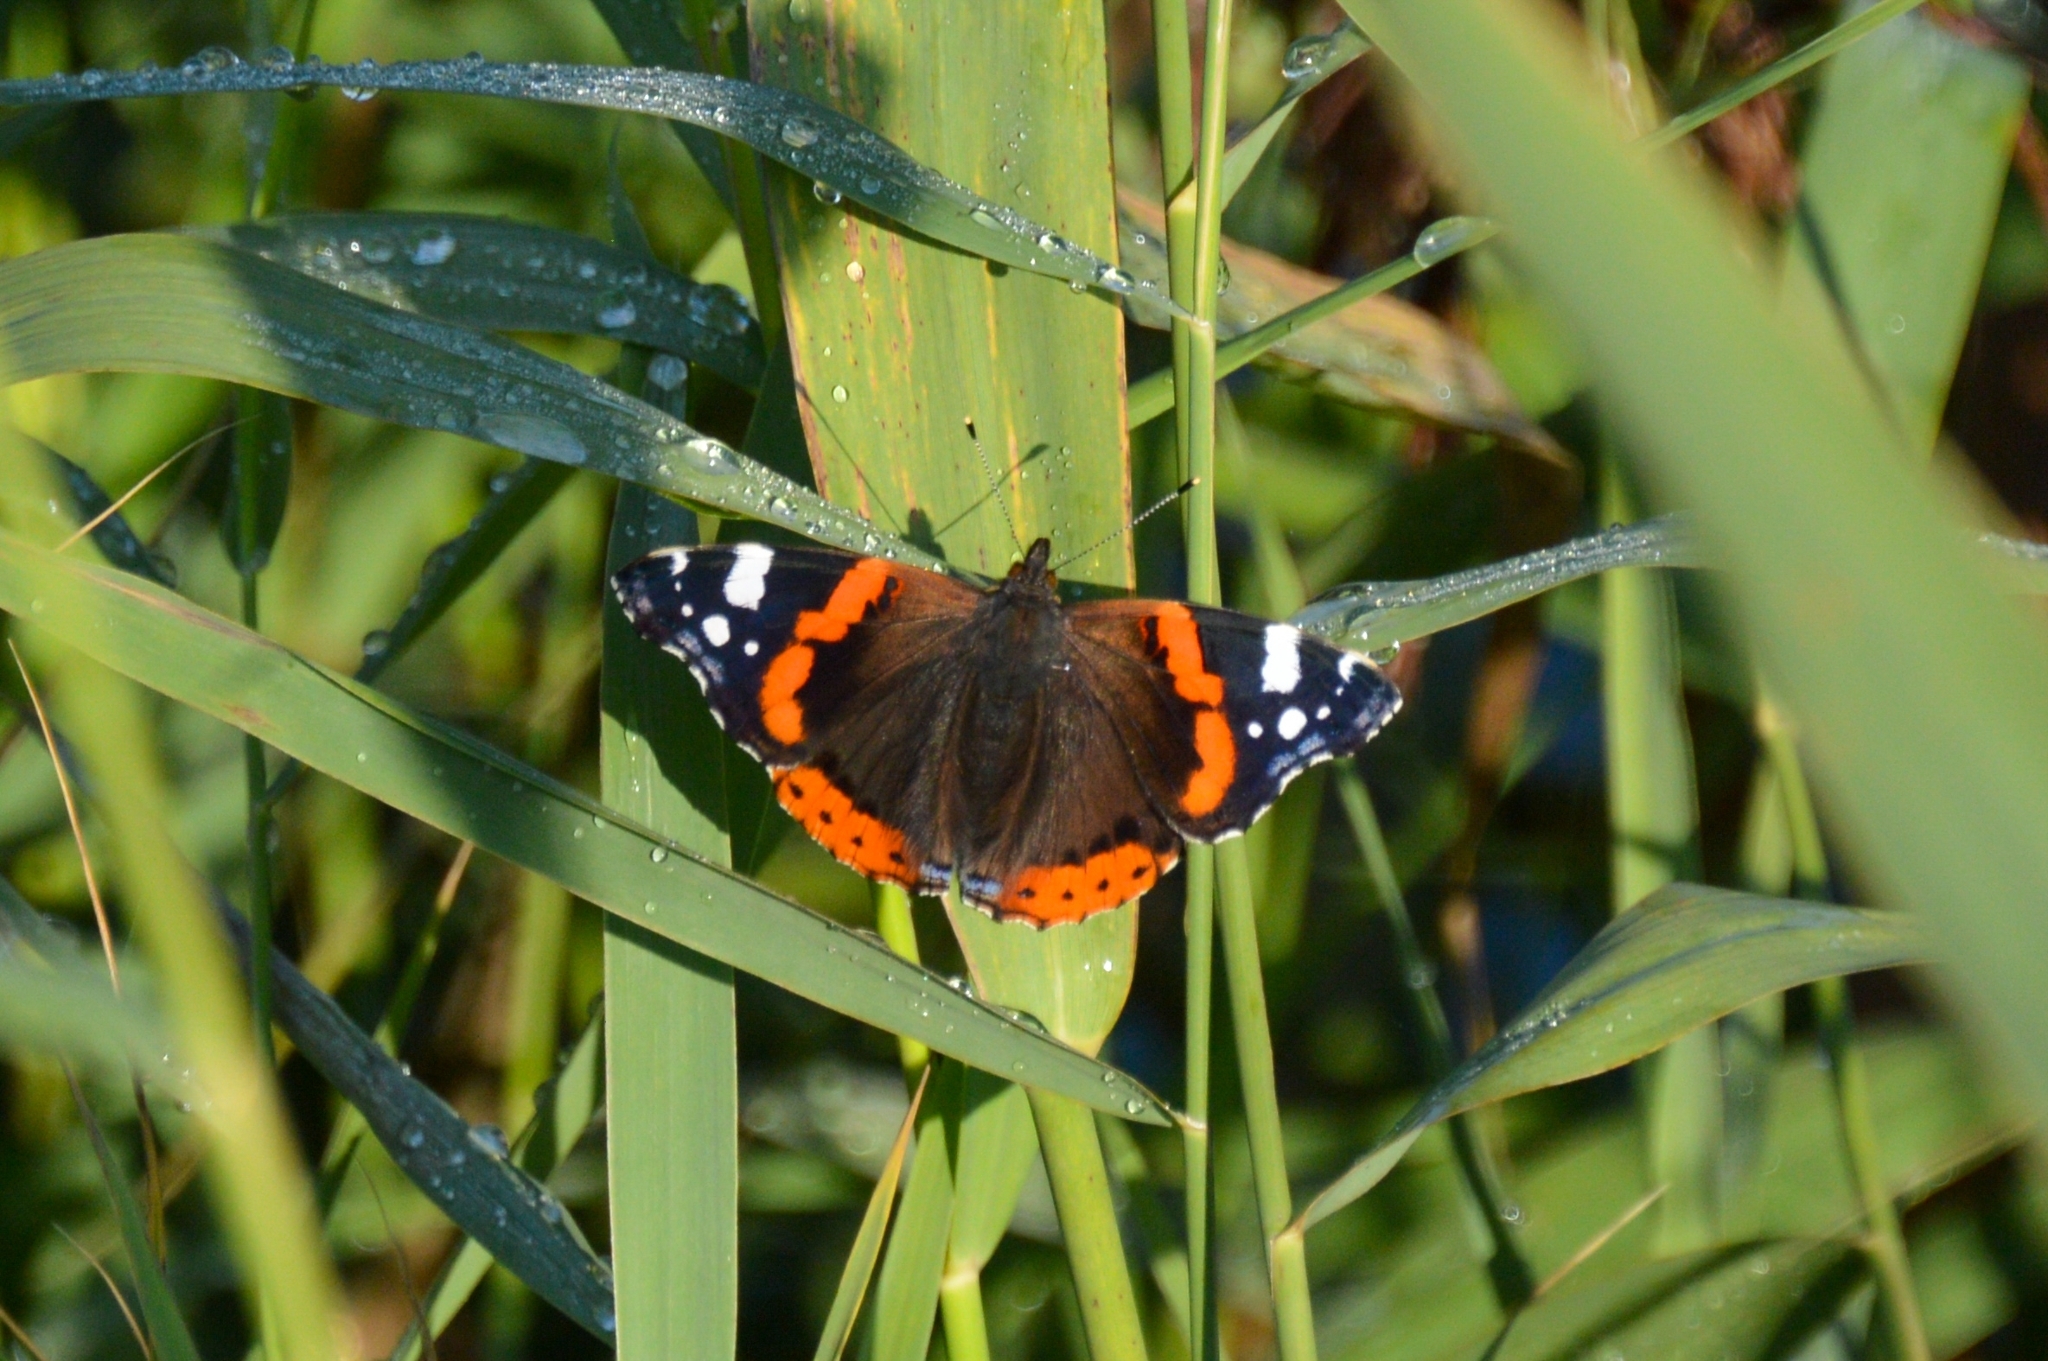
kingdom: Animalia
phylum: Arthropoda
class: Insecta
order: Lepidoptera
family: Nymphalidae
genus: Vanessa
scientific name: Vanessa atalanta
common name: Red admiral
